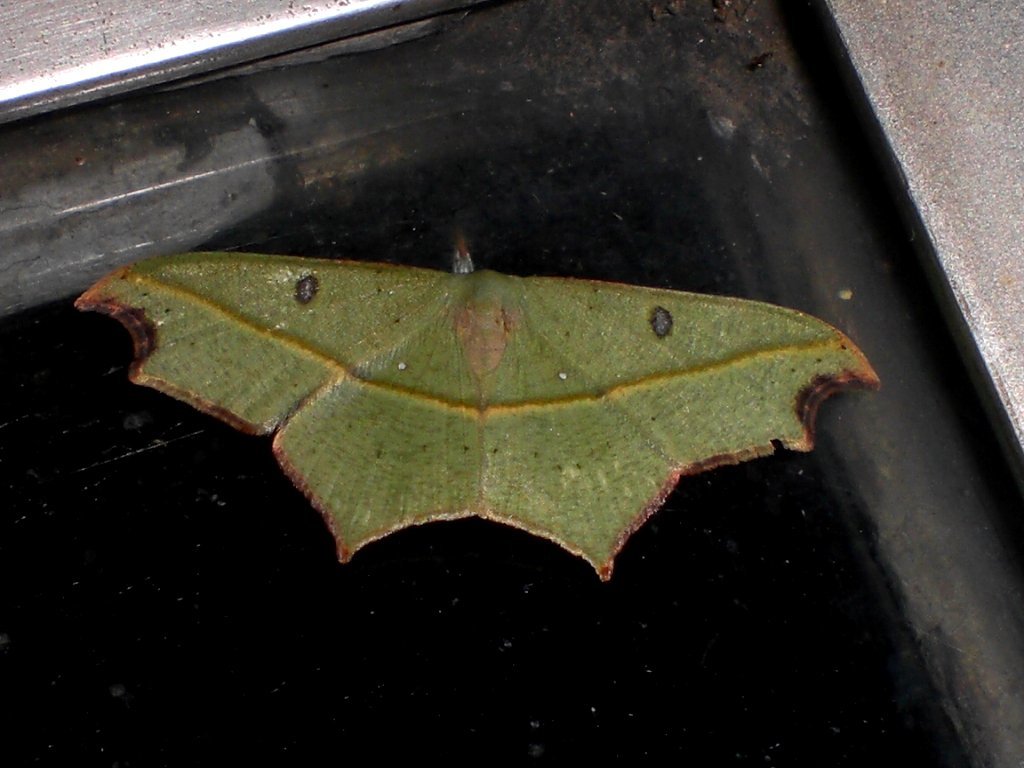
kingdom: Animalia
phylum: Arthropoda
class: Insecta
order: Lepidoptera
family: Geometridae
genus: Traminda
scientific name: Traminda aventiaria
